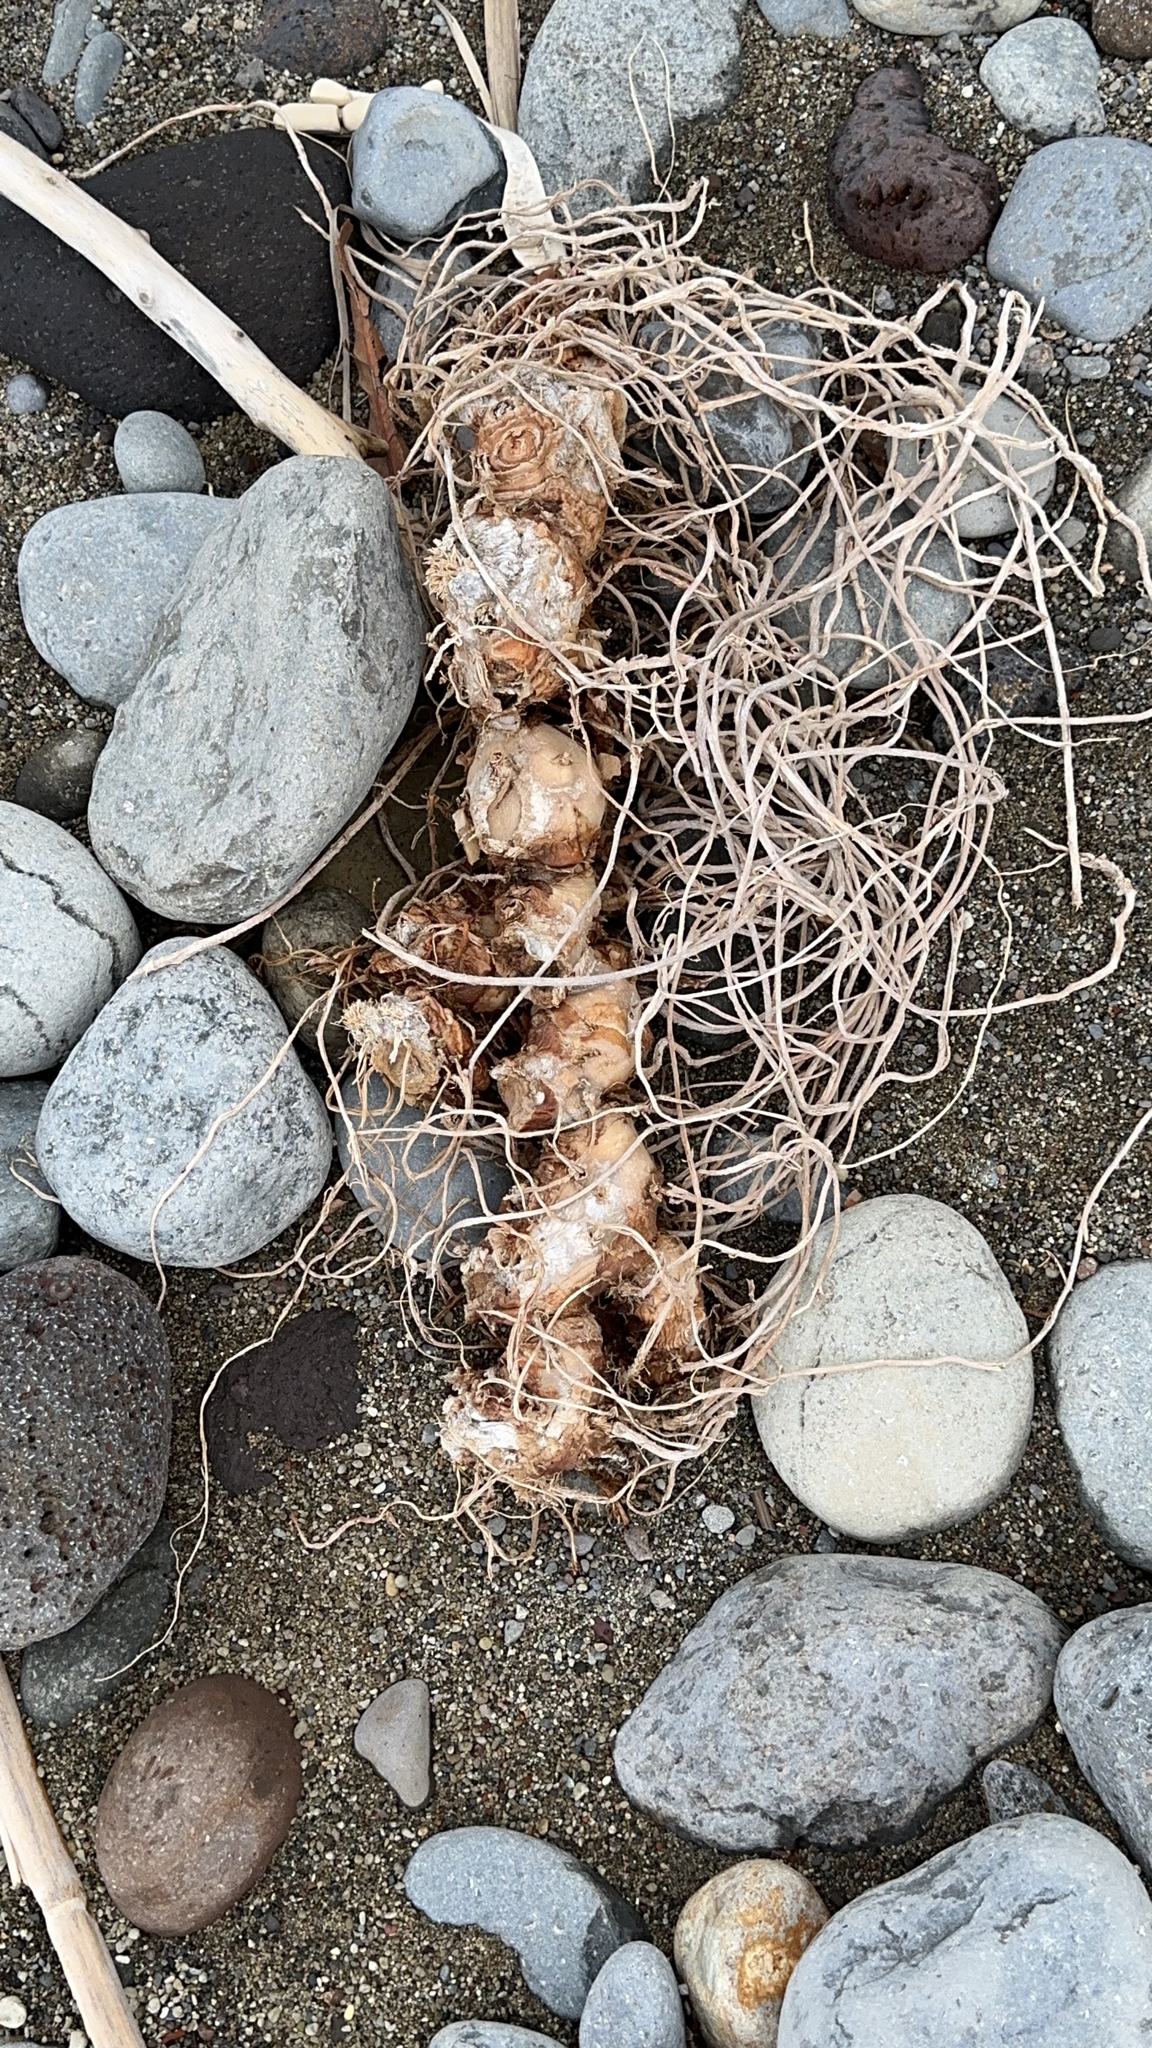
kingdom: Plantae
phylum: Tracheophyta
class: Liliopsida
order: Zingiberales
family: Zingiberaceae
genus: Hedychium
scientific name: Hedychium gardnerianum
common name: Himalayan ginger
